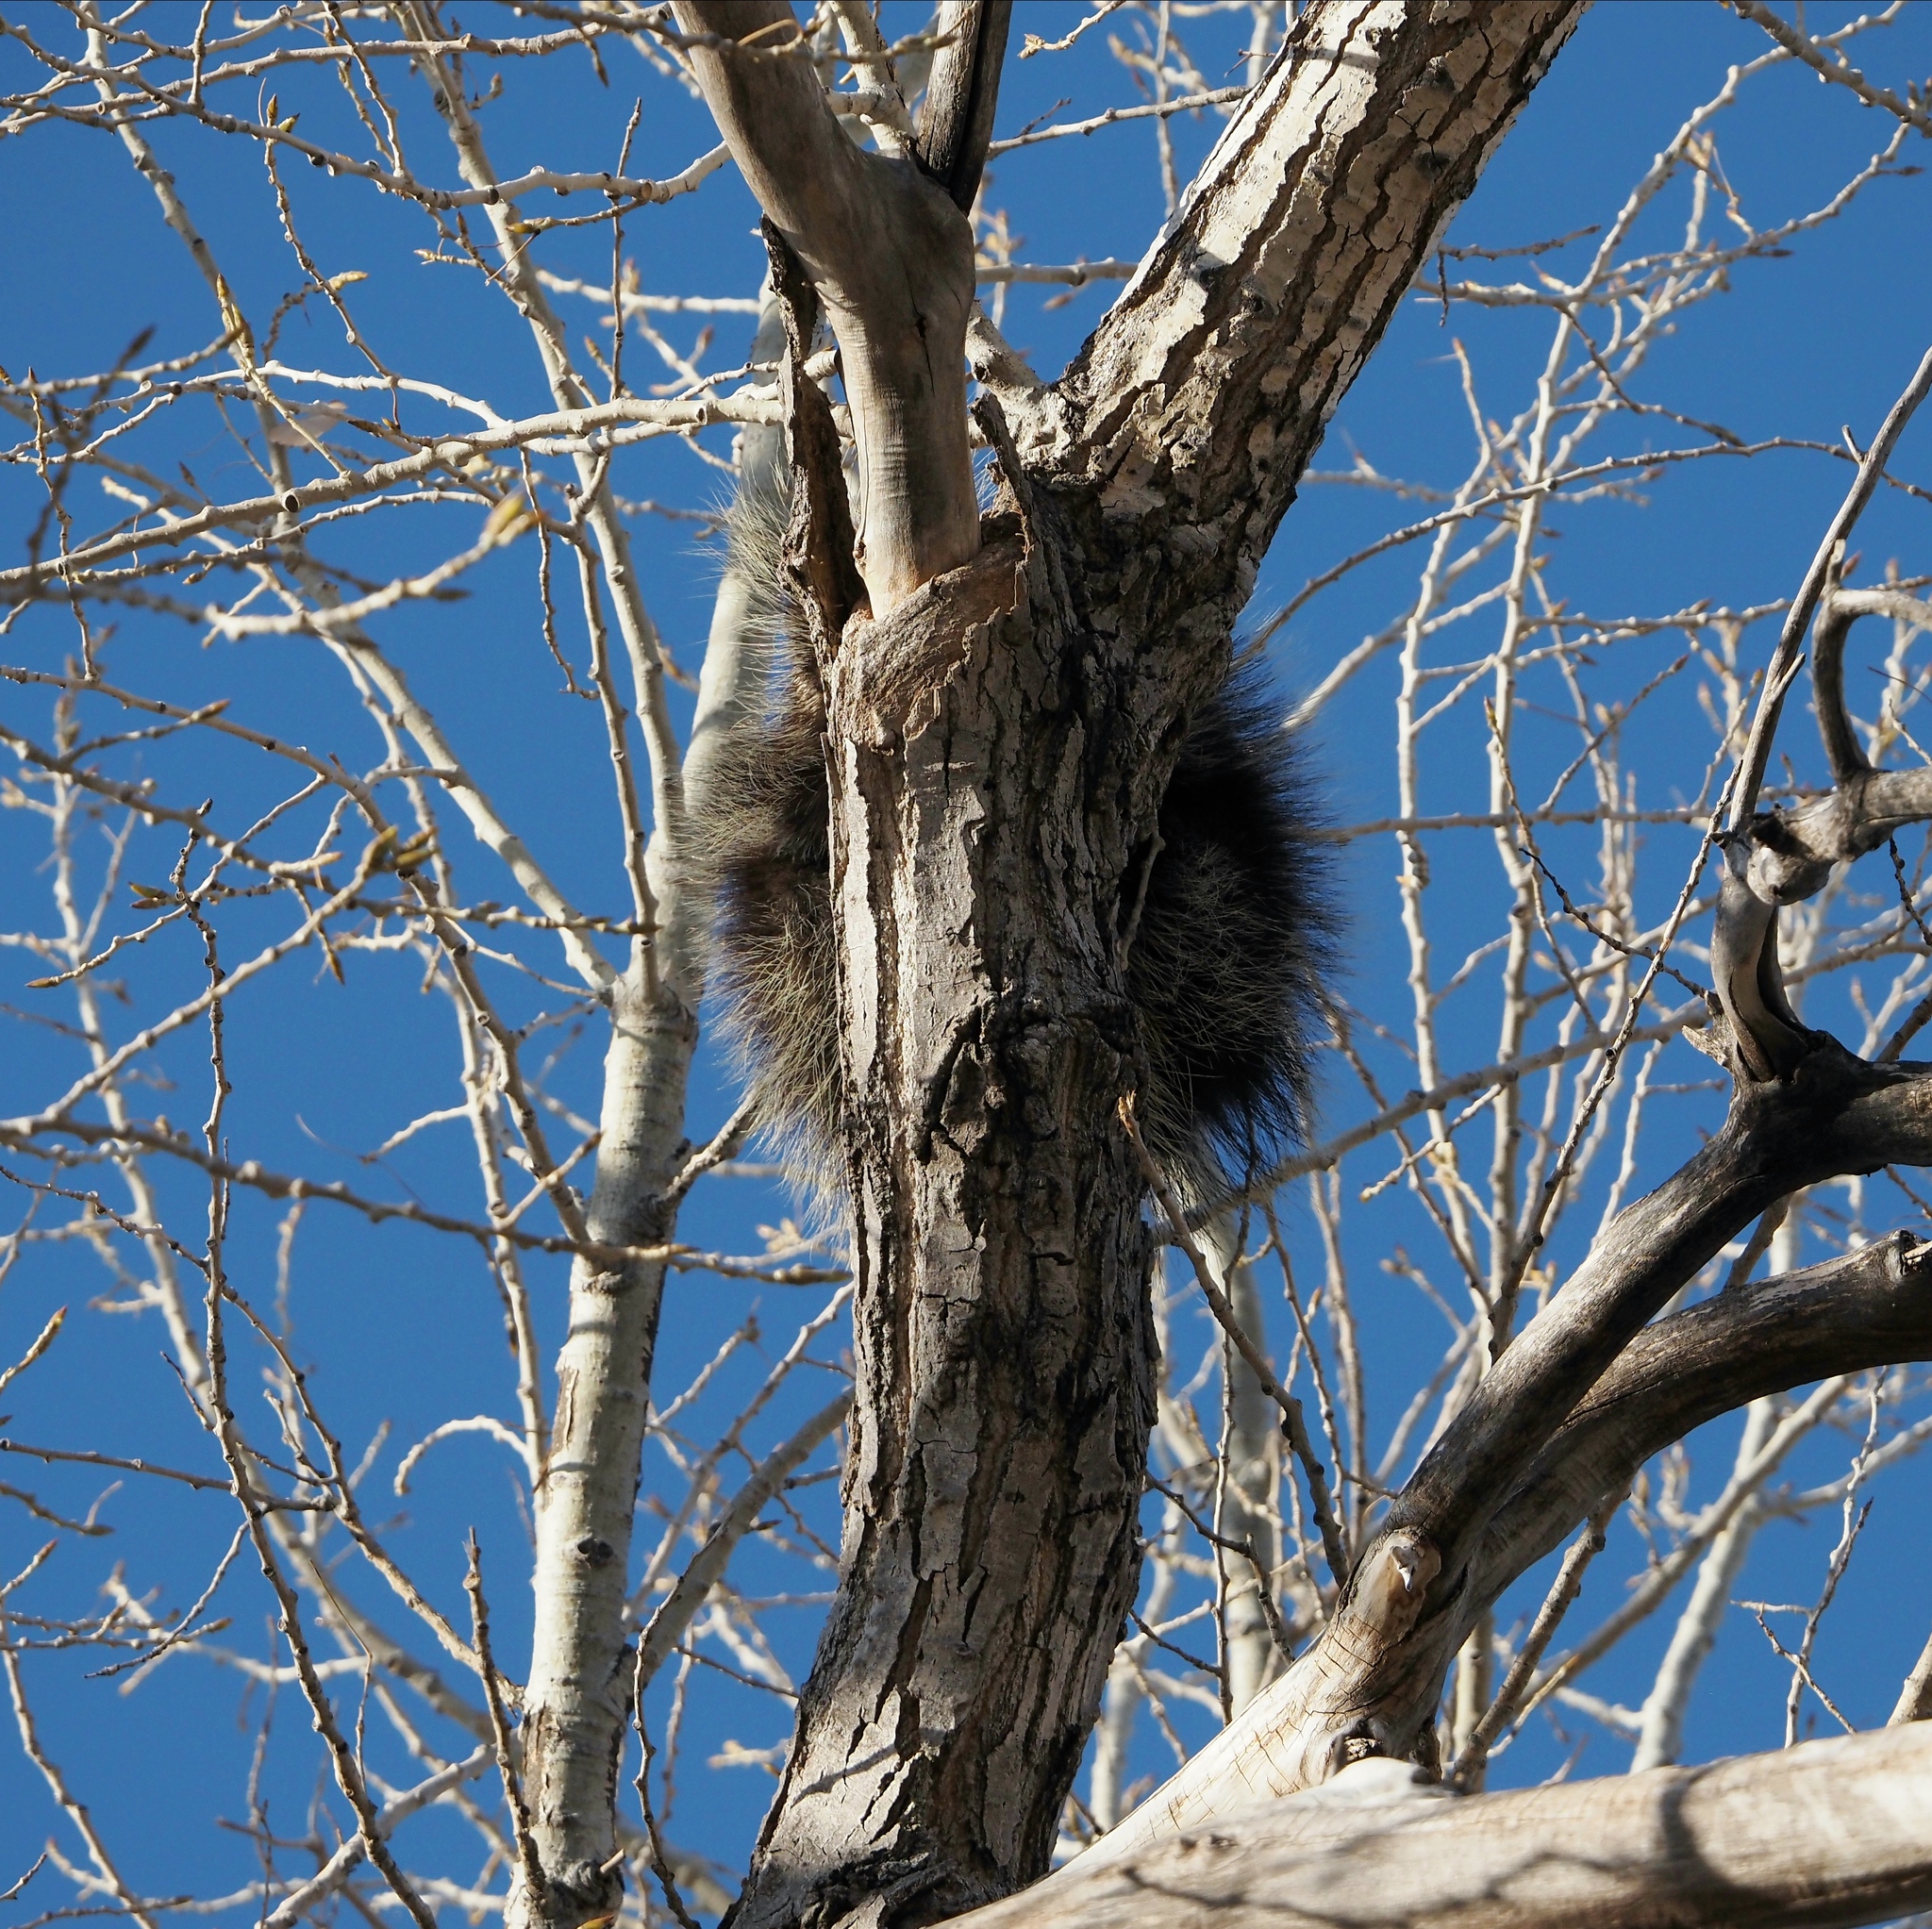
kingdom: Animalia
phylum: Chordata
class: Mammalia
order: Rodentia
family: Erethizontidae
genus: Erethizon
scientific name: Erethizon dorsatus
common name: North american porcupine
